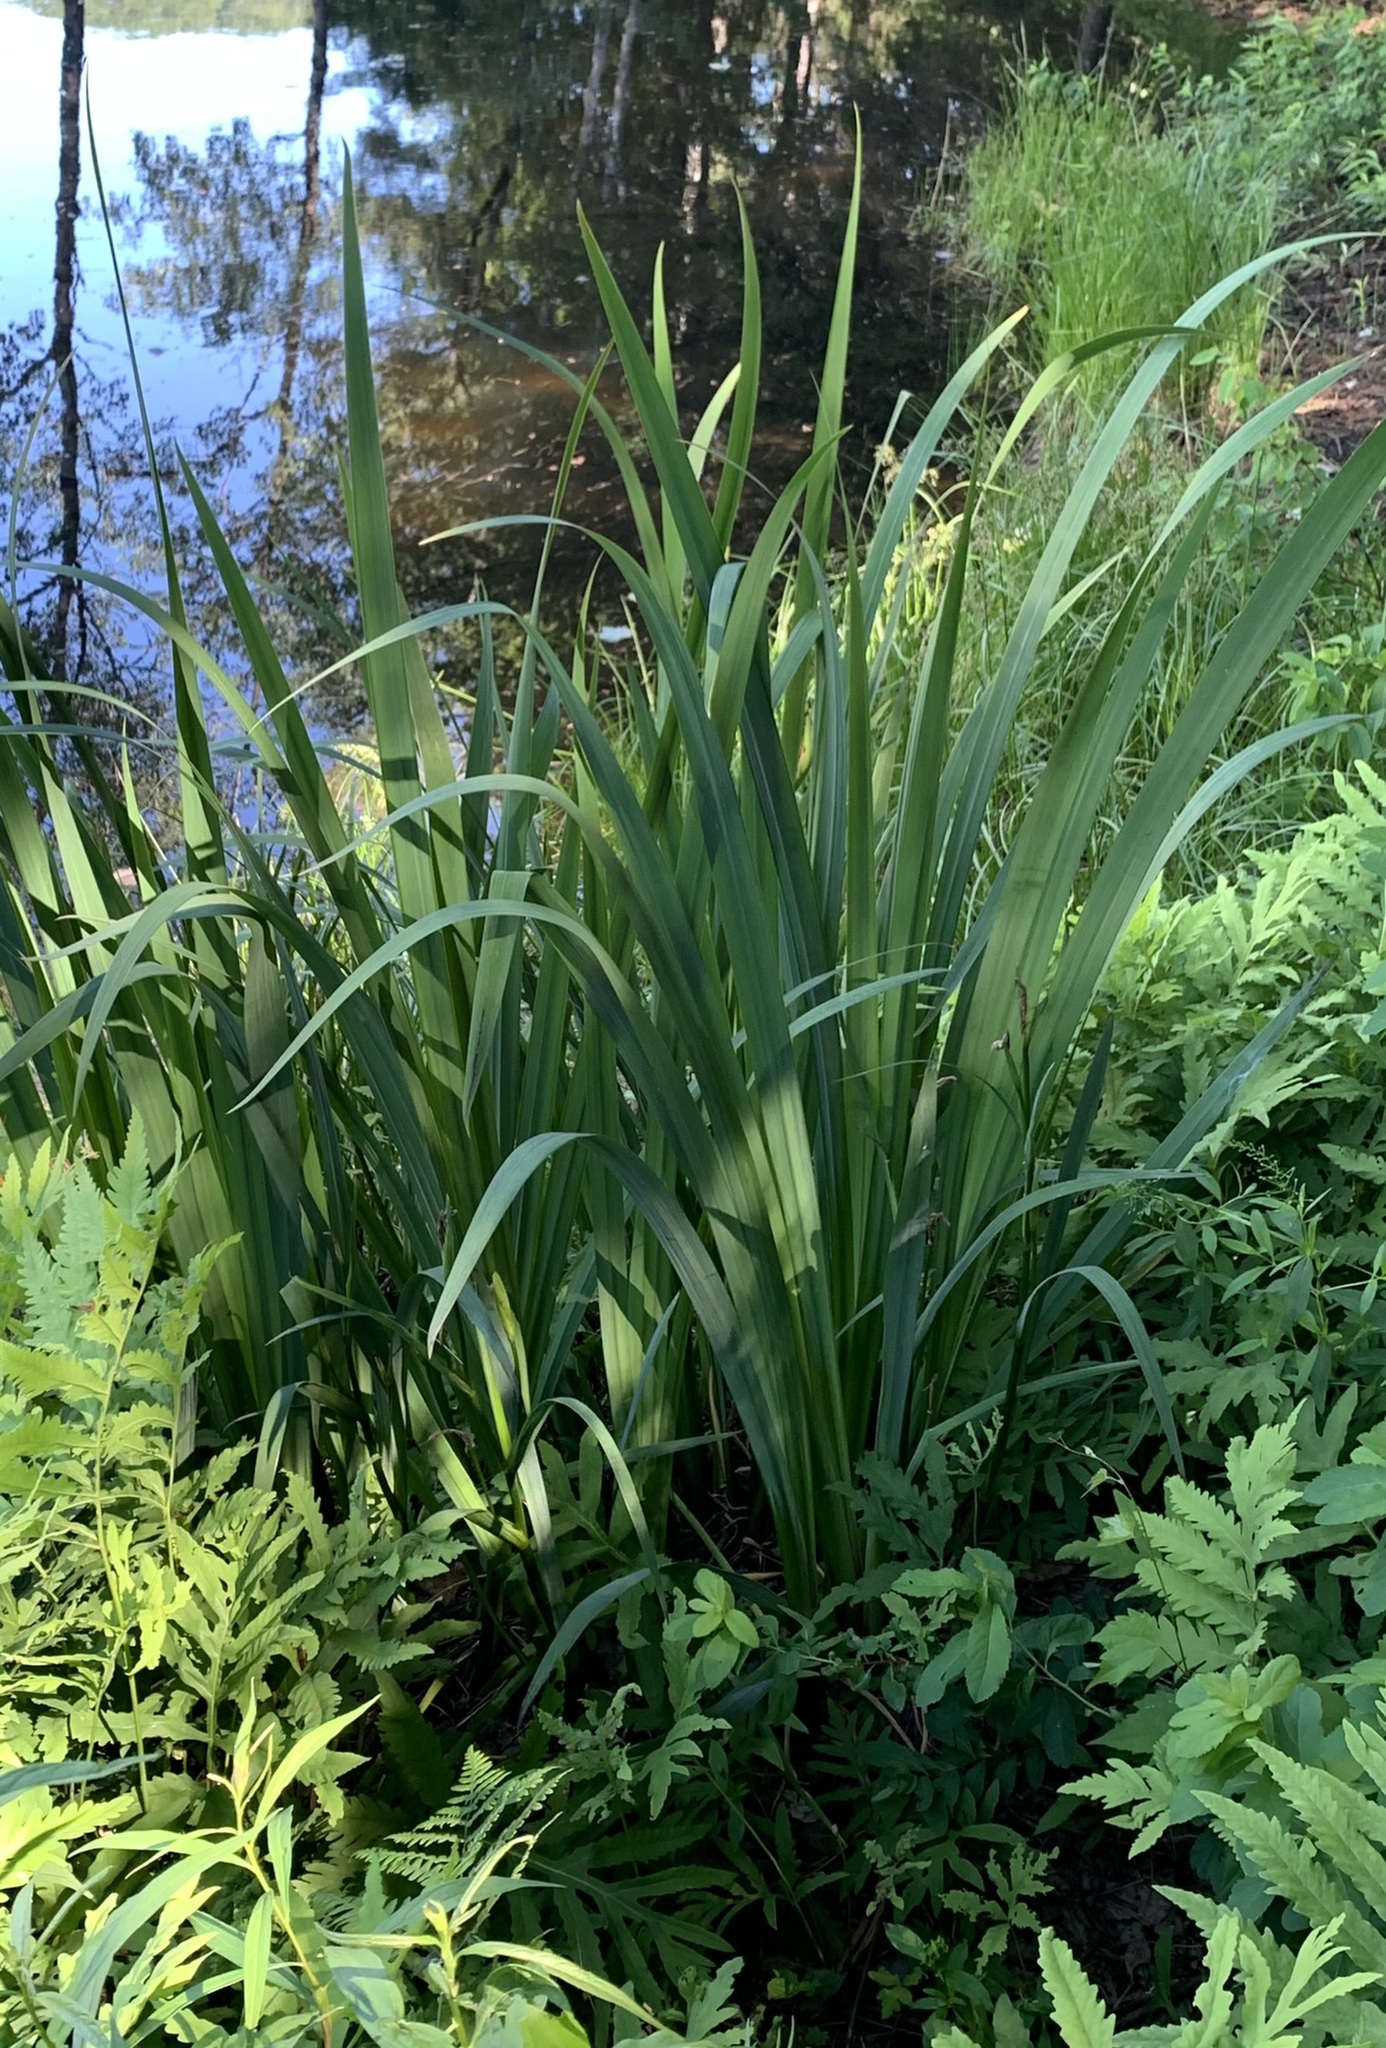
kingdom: Plantae
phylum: Tracheophyta
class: Liliopsida
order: Asparagales
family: Iridaceae
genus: Iris
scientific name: Iris pseudacorus
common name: Yellow flag
